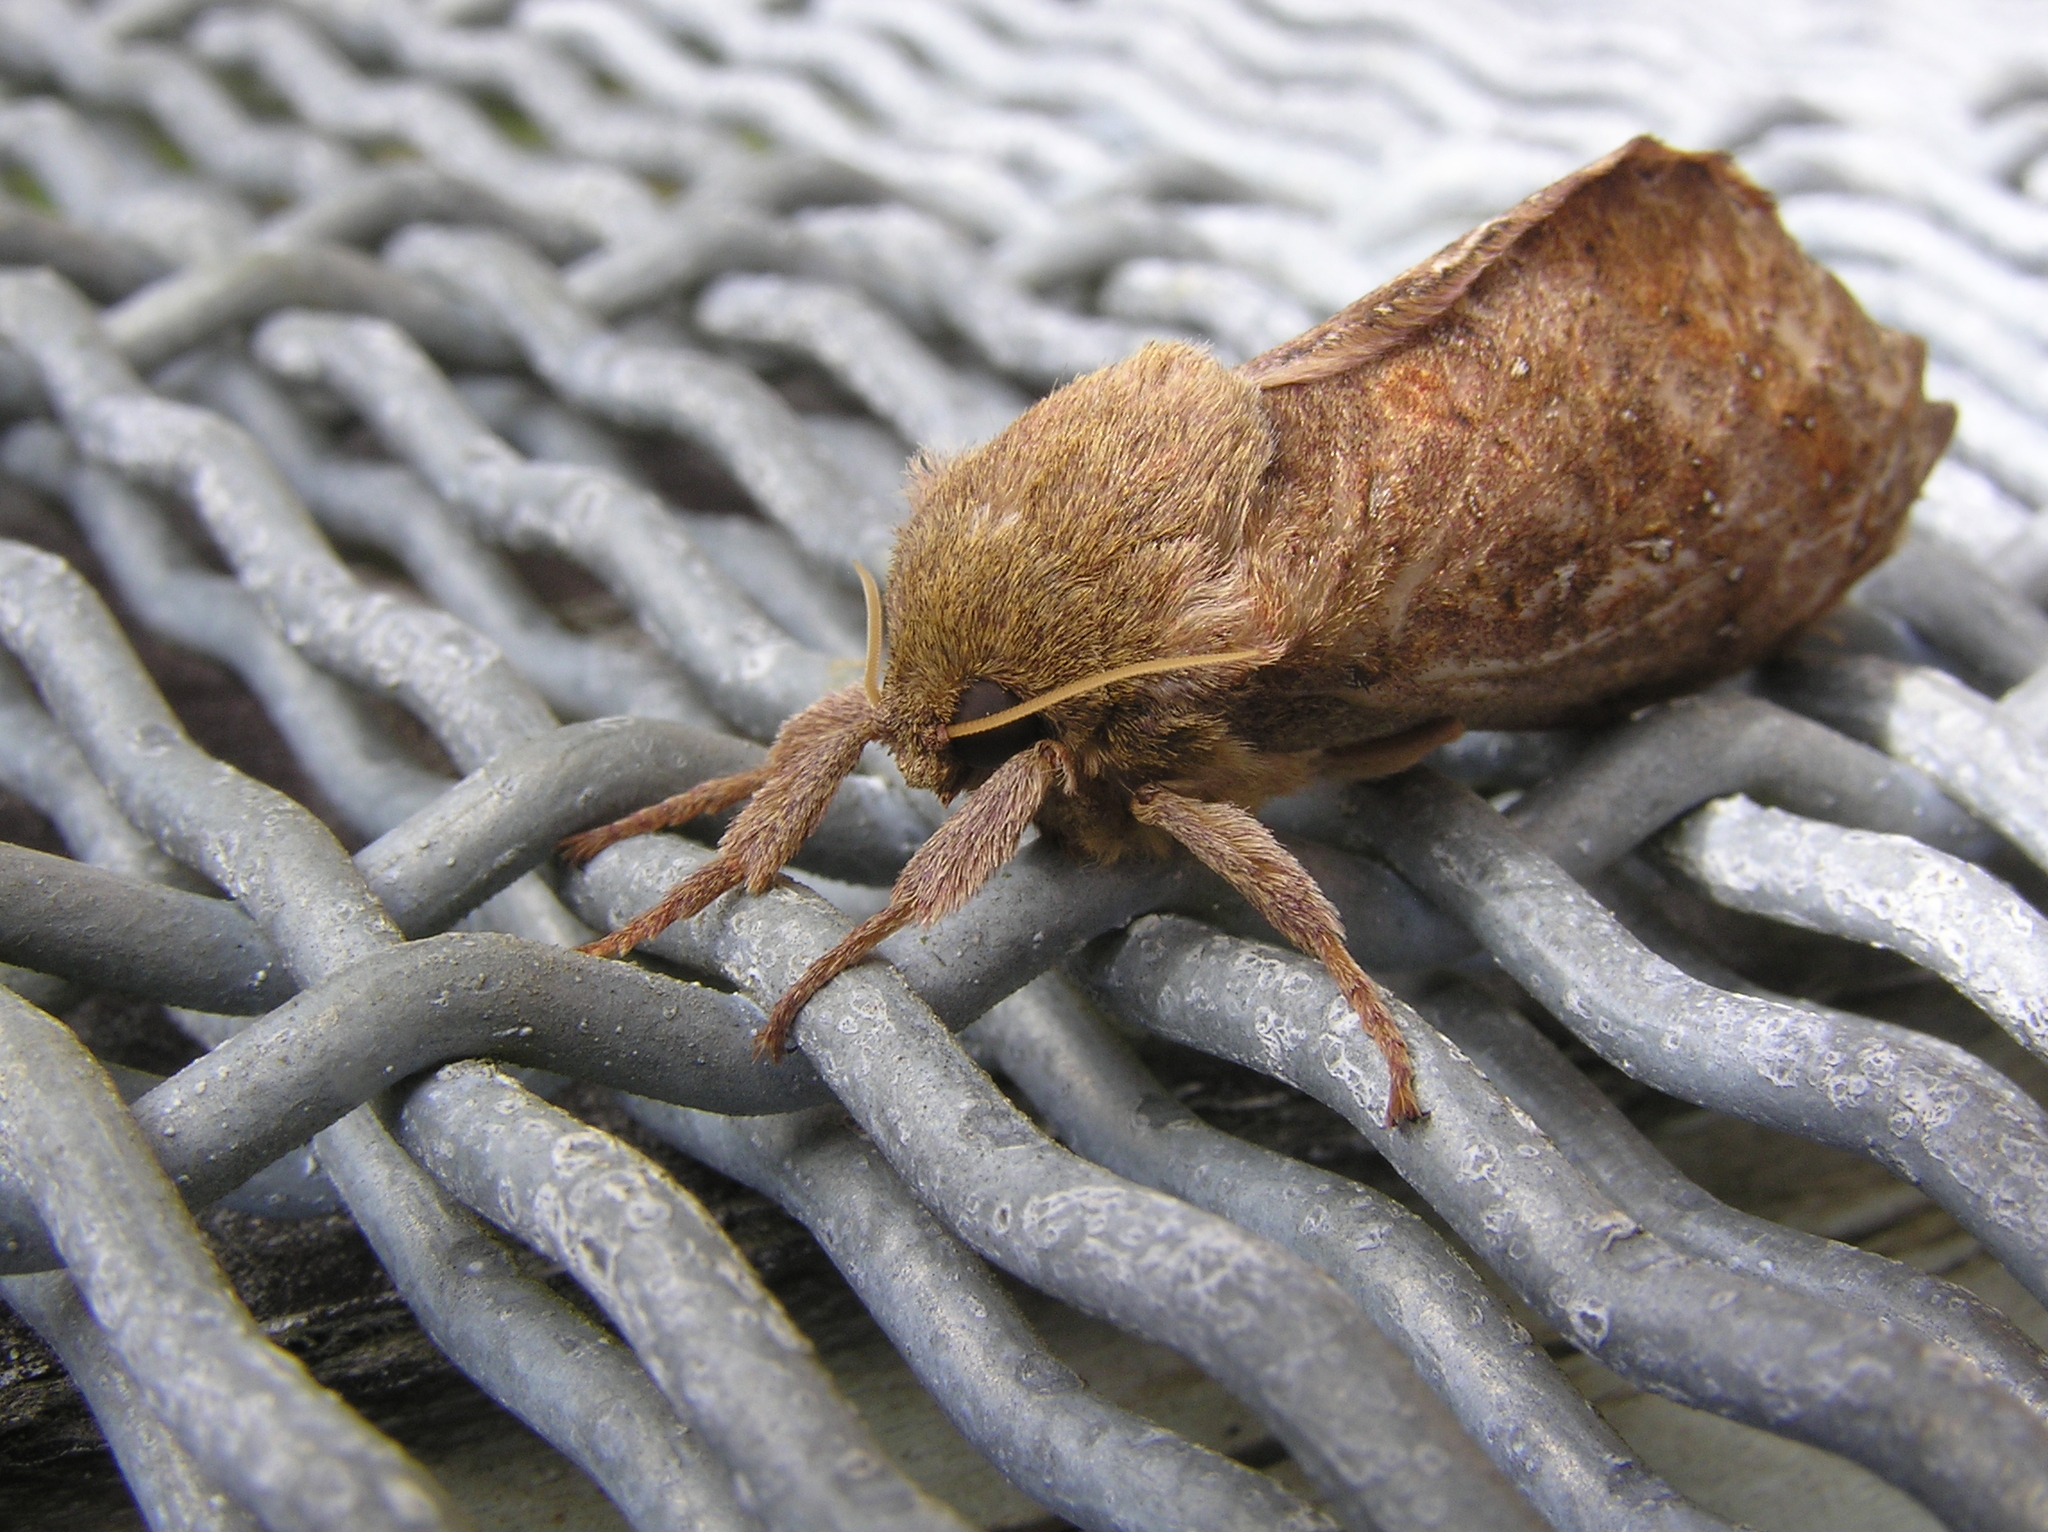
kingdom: Animalia
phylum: Arthropoda
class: Insecta
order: Lepidoptera
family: Hepialidae
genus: Dumbletonius
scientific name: Dumbletonius unimaculata
